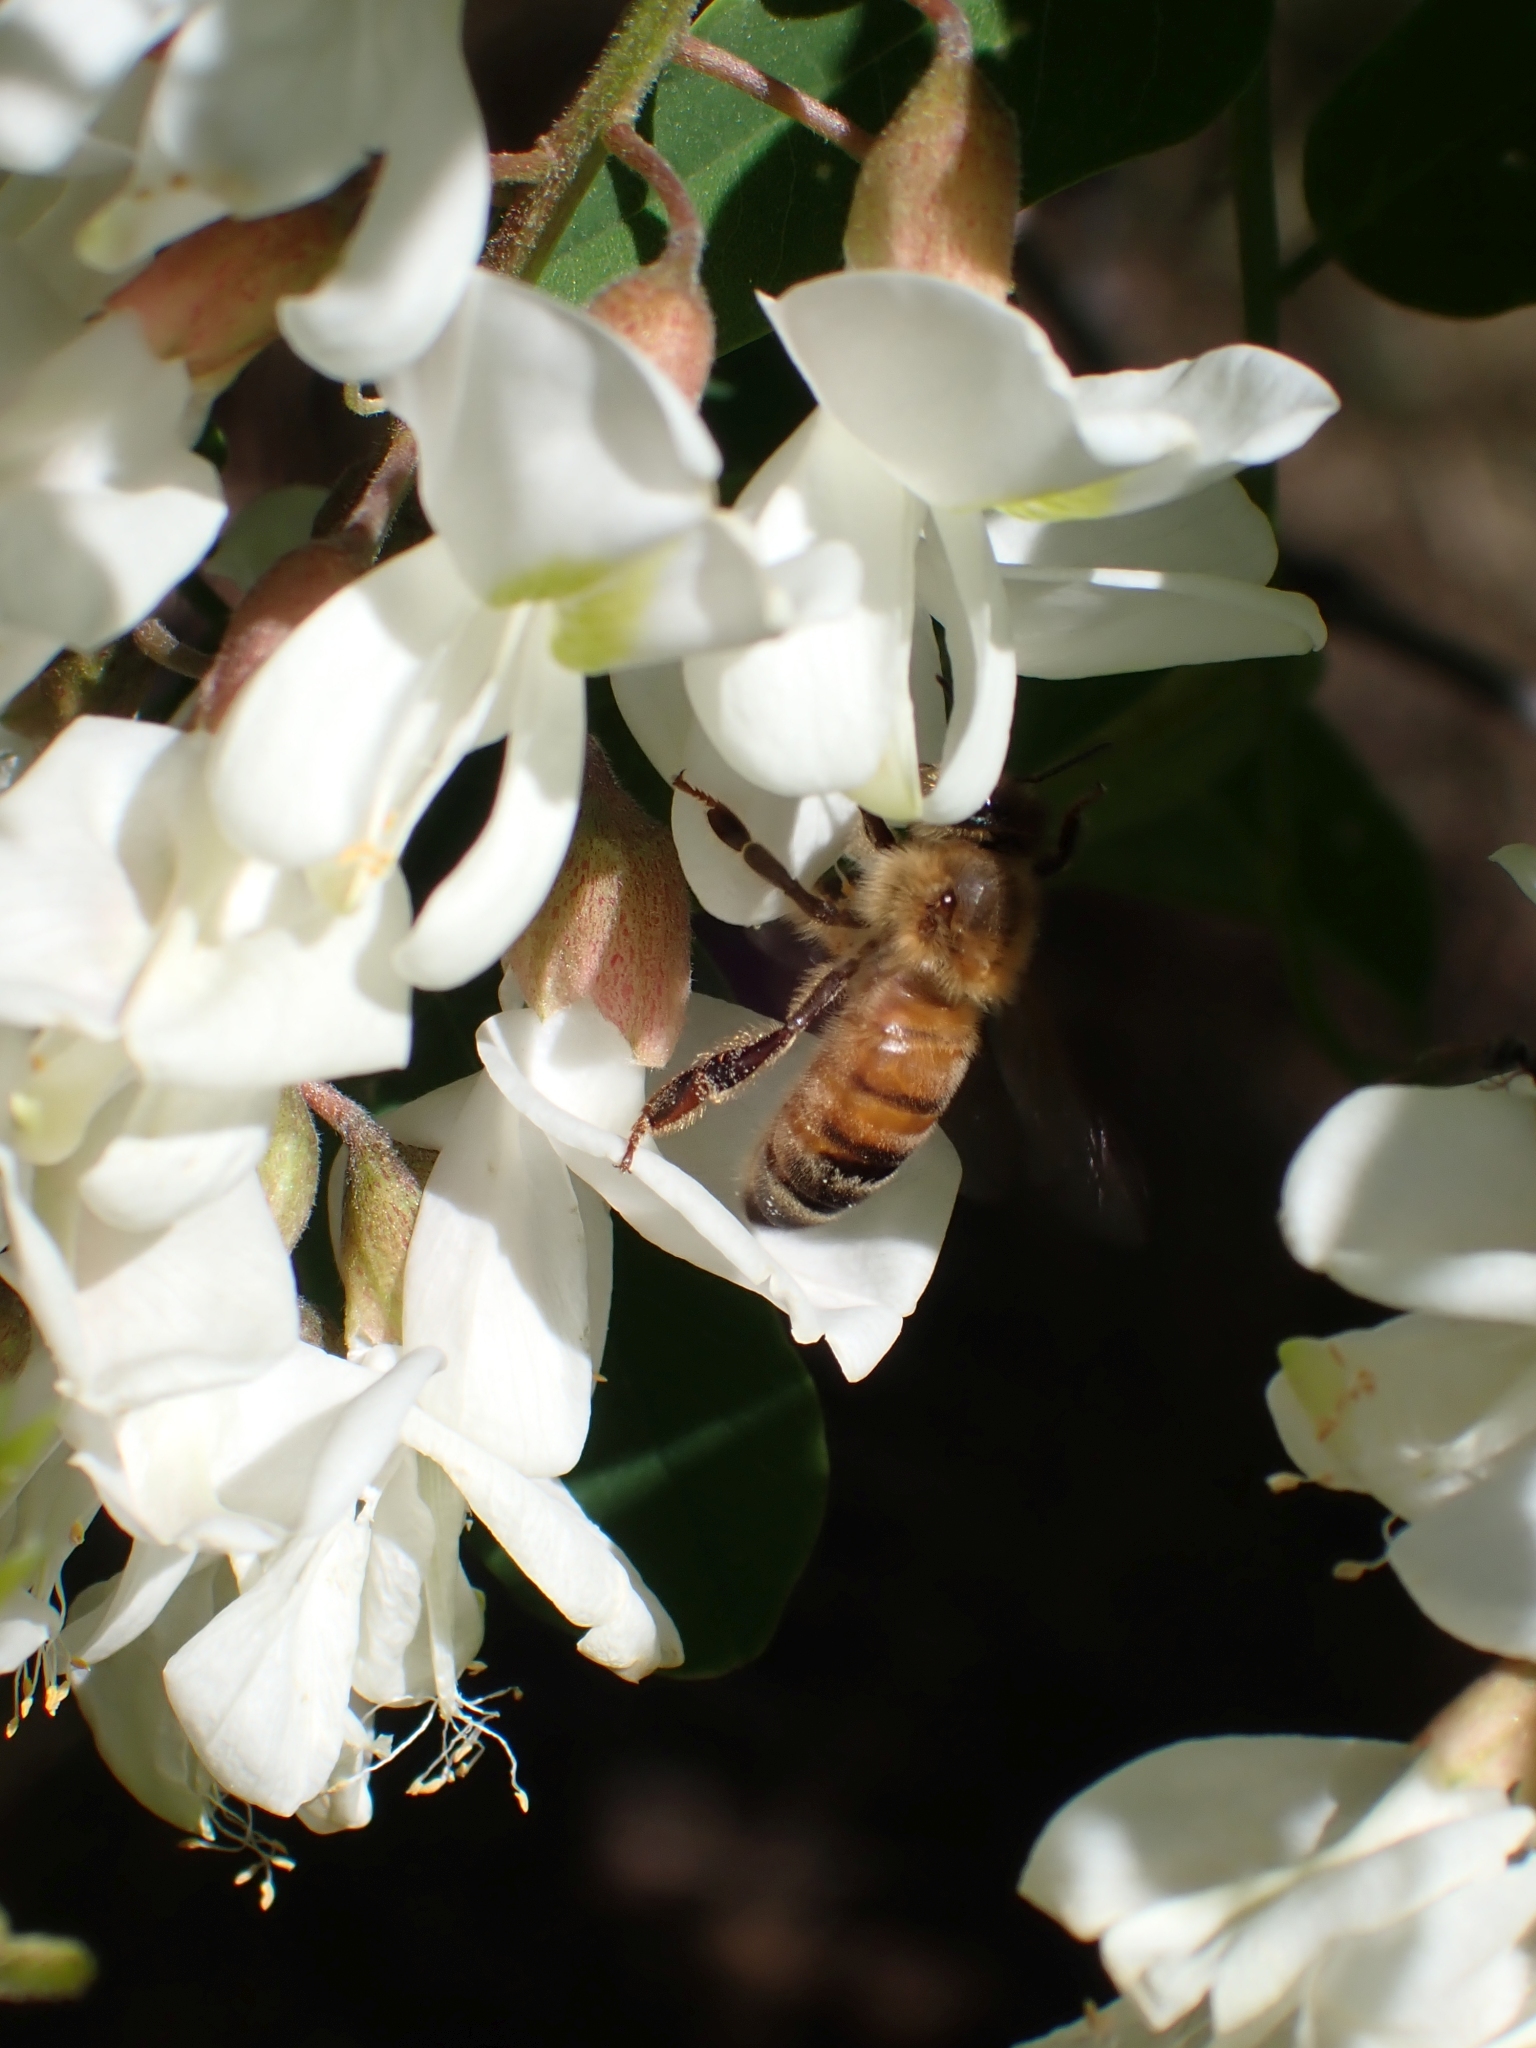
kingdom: Animalia
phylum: Arthropoda
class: Insecta
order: Hymenoptera
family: Apidae
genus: Apis
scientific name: Apis mellifera
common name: Honey bee
